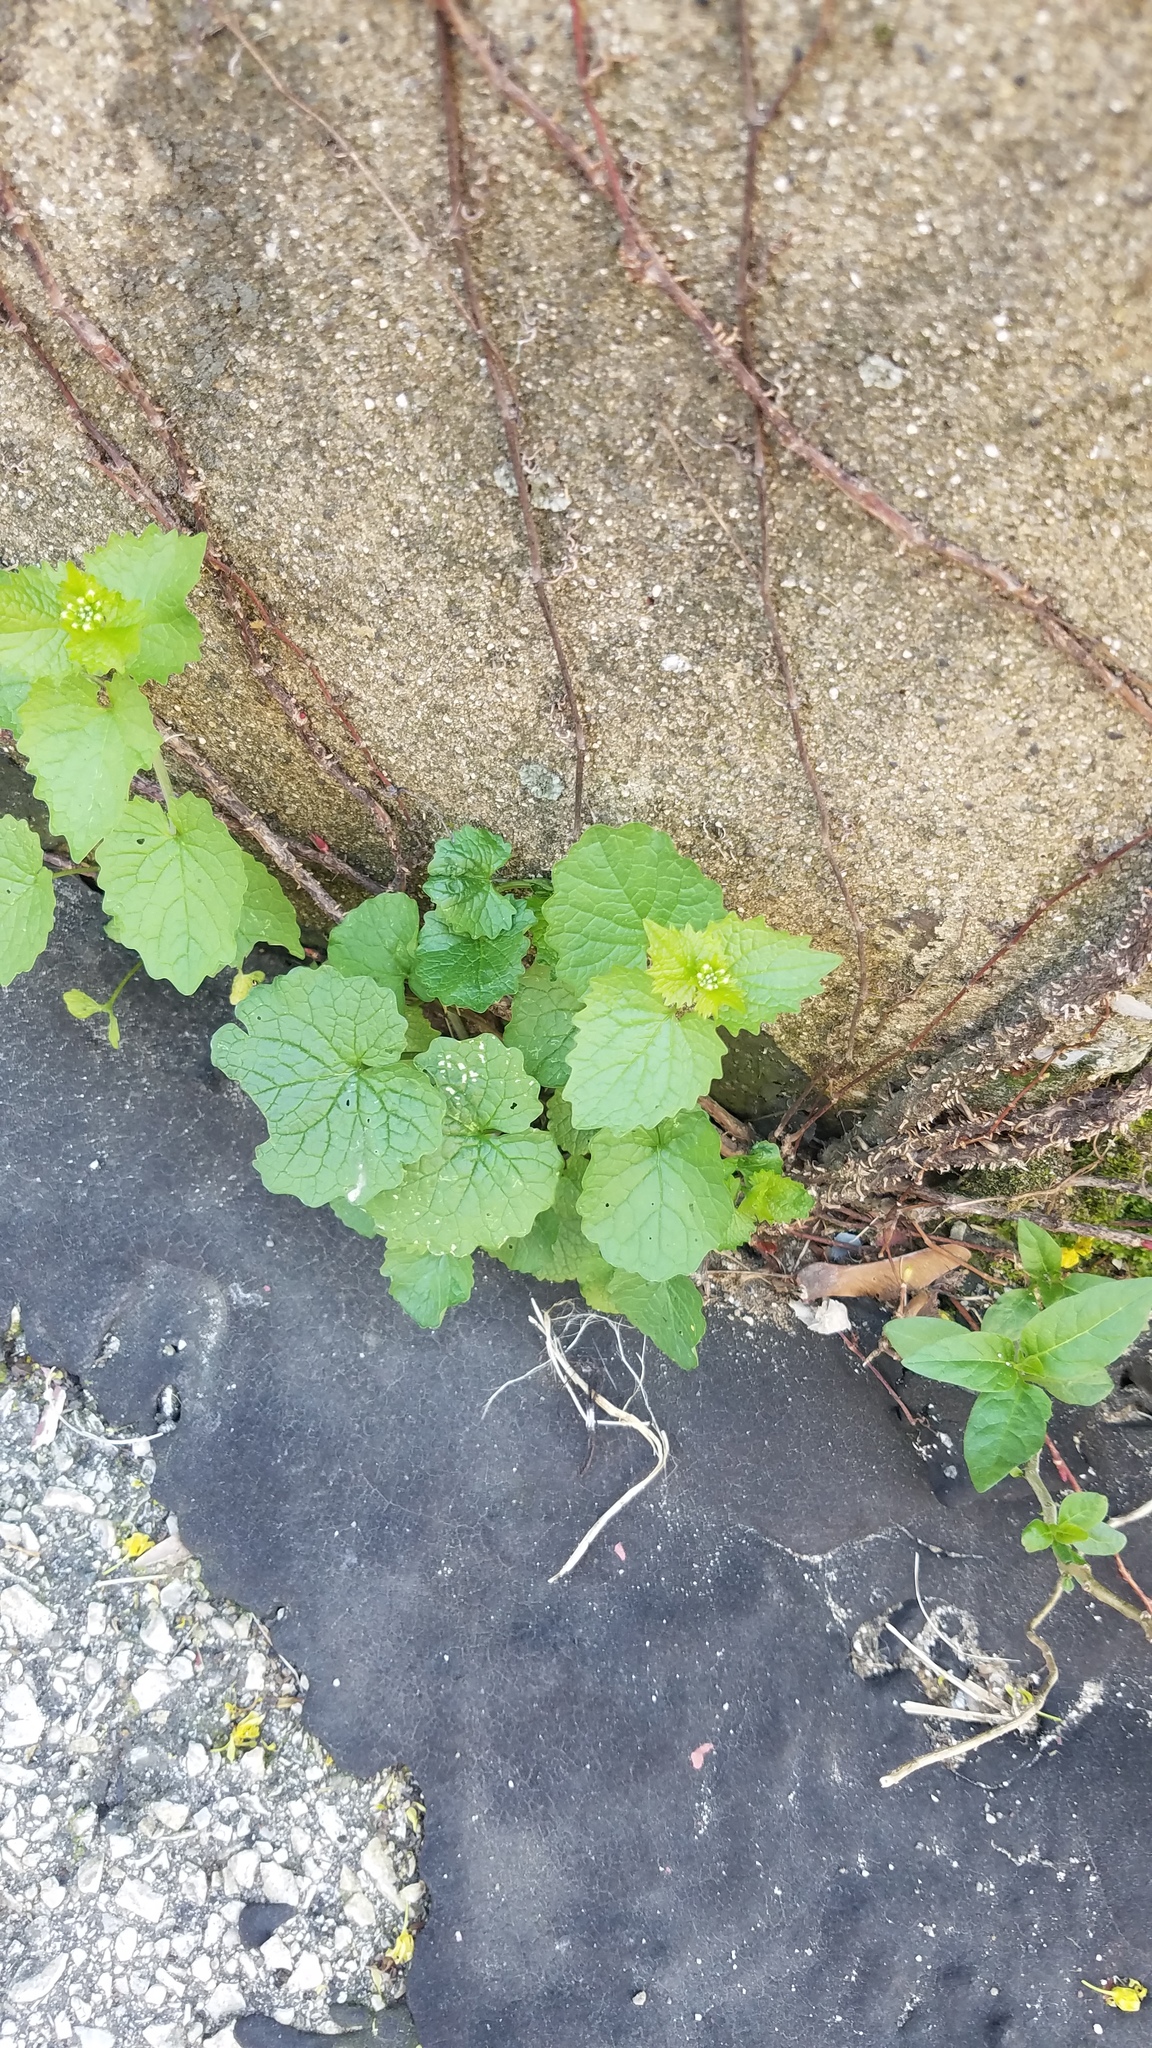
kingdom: Plantae
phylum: Tracheophyta
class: Magnoliopsida
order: Brassicales
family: Brassicaceae
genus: Alliaria
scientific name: Alliaria petiolata
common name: Garlic mustard
